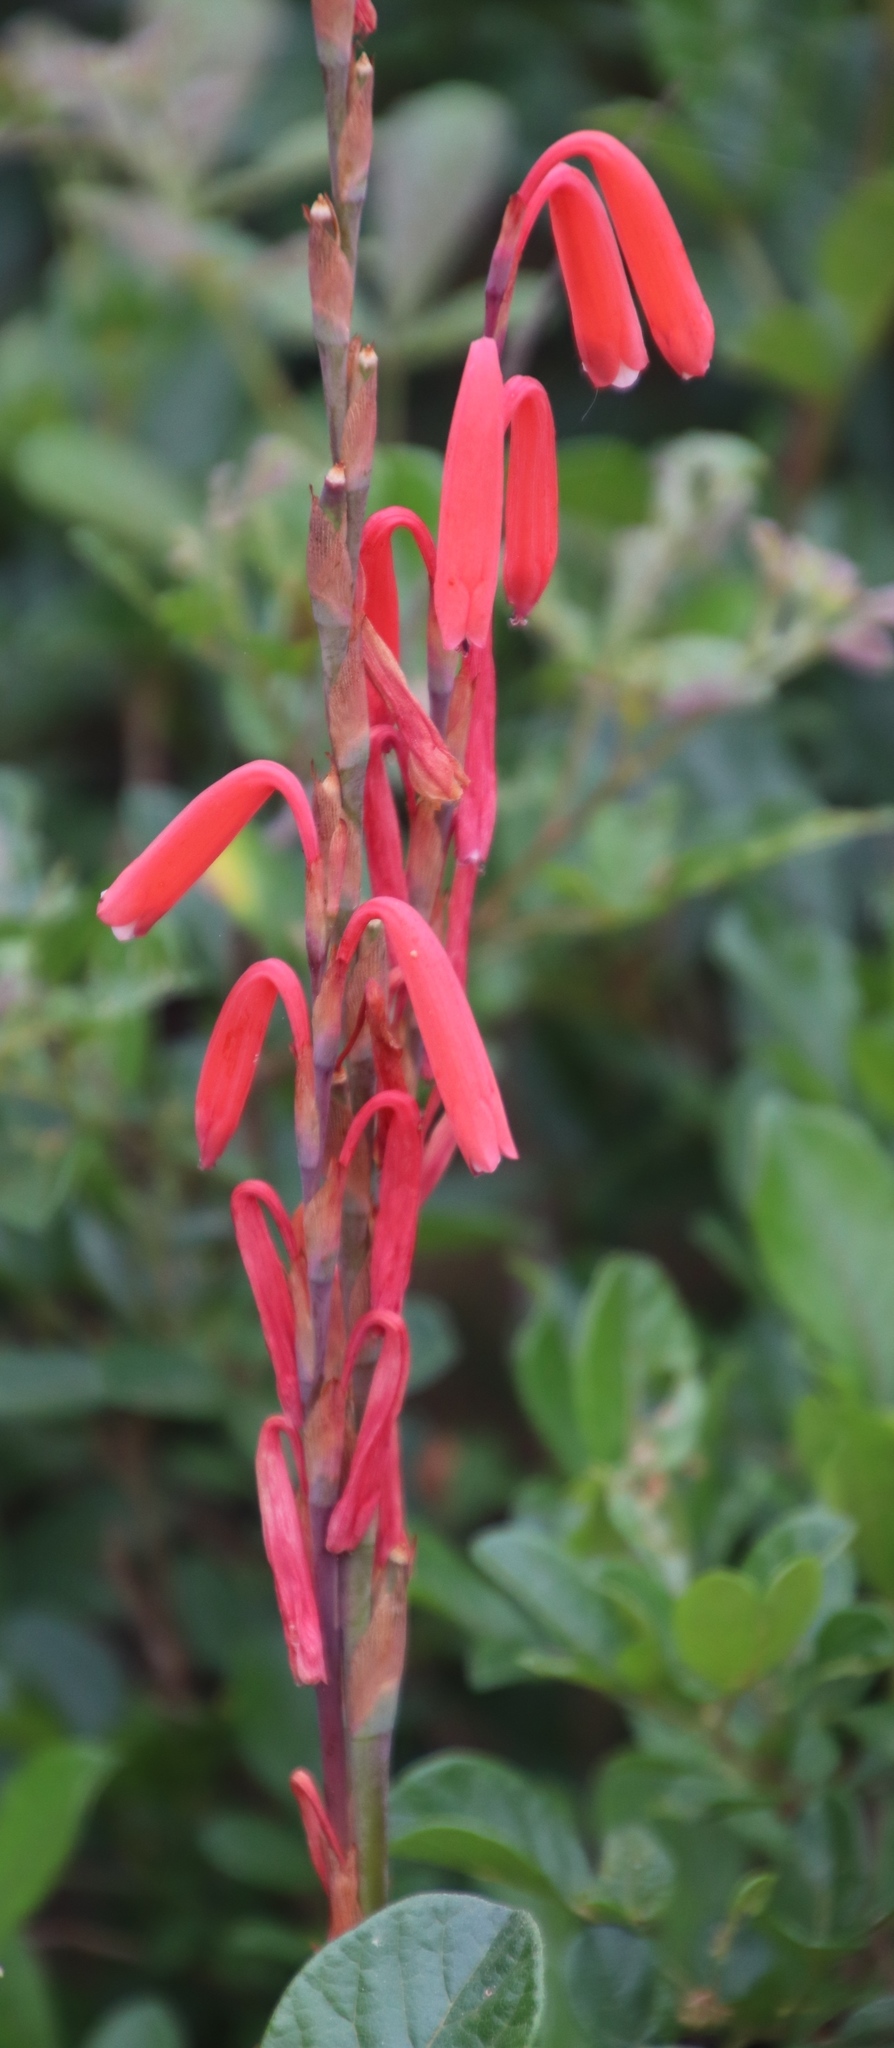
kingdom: Plantae
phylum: Tracheophyta
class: Liliopsida
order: Asparagales
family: Iridaceae
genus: Watsonia
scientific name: Watsonia aletroides
